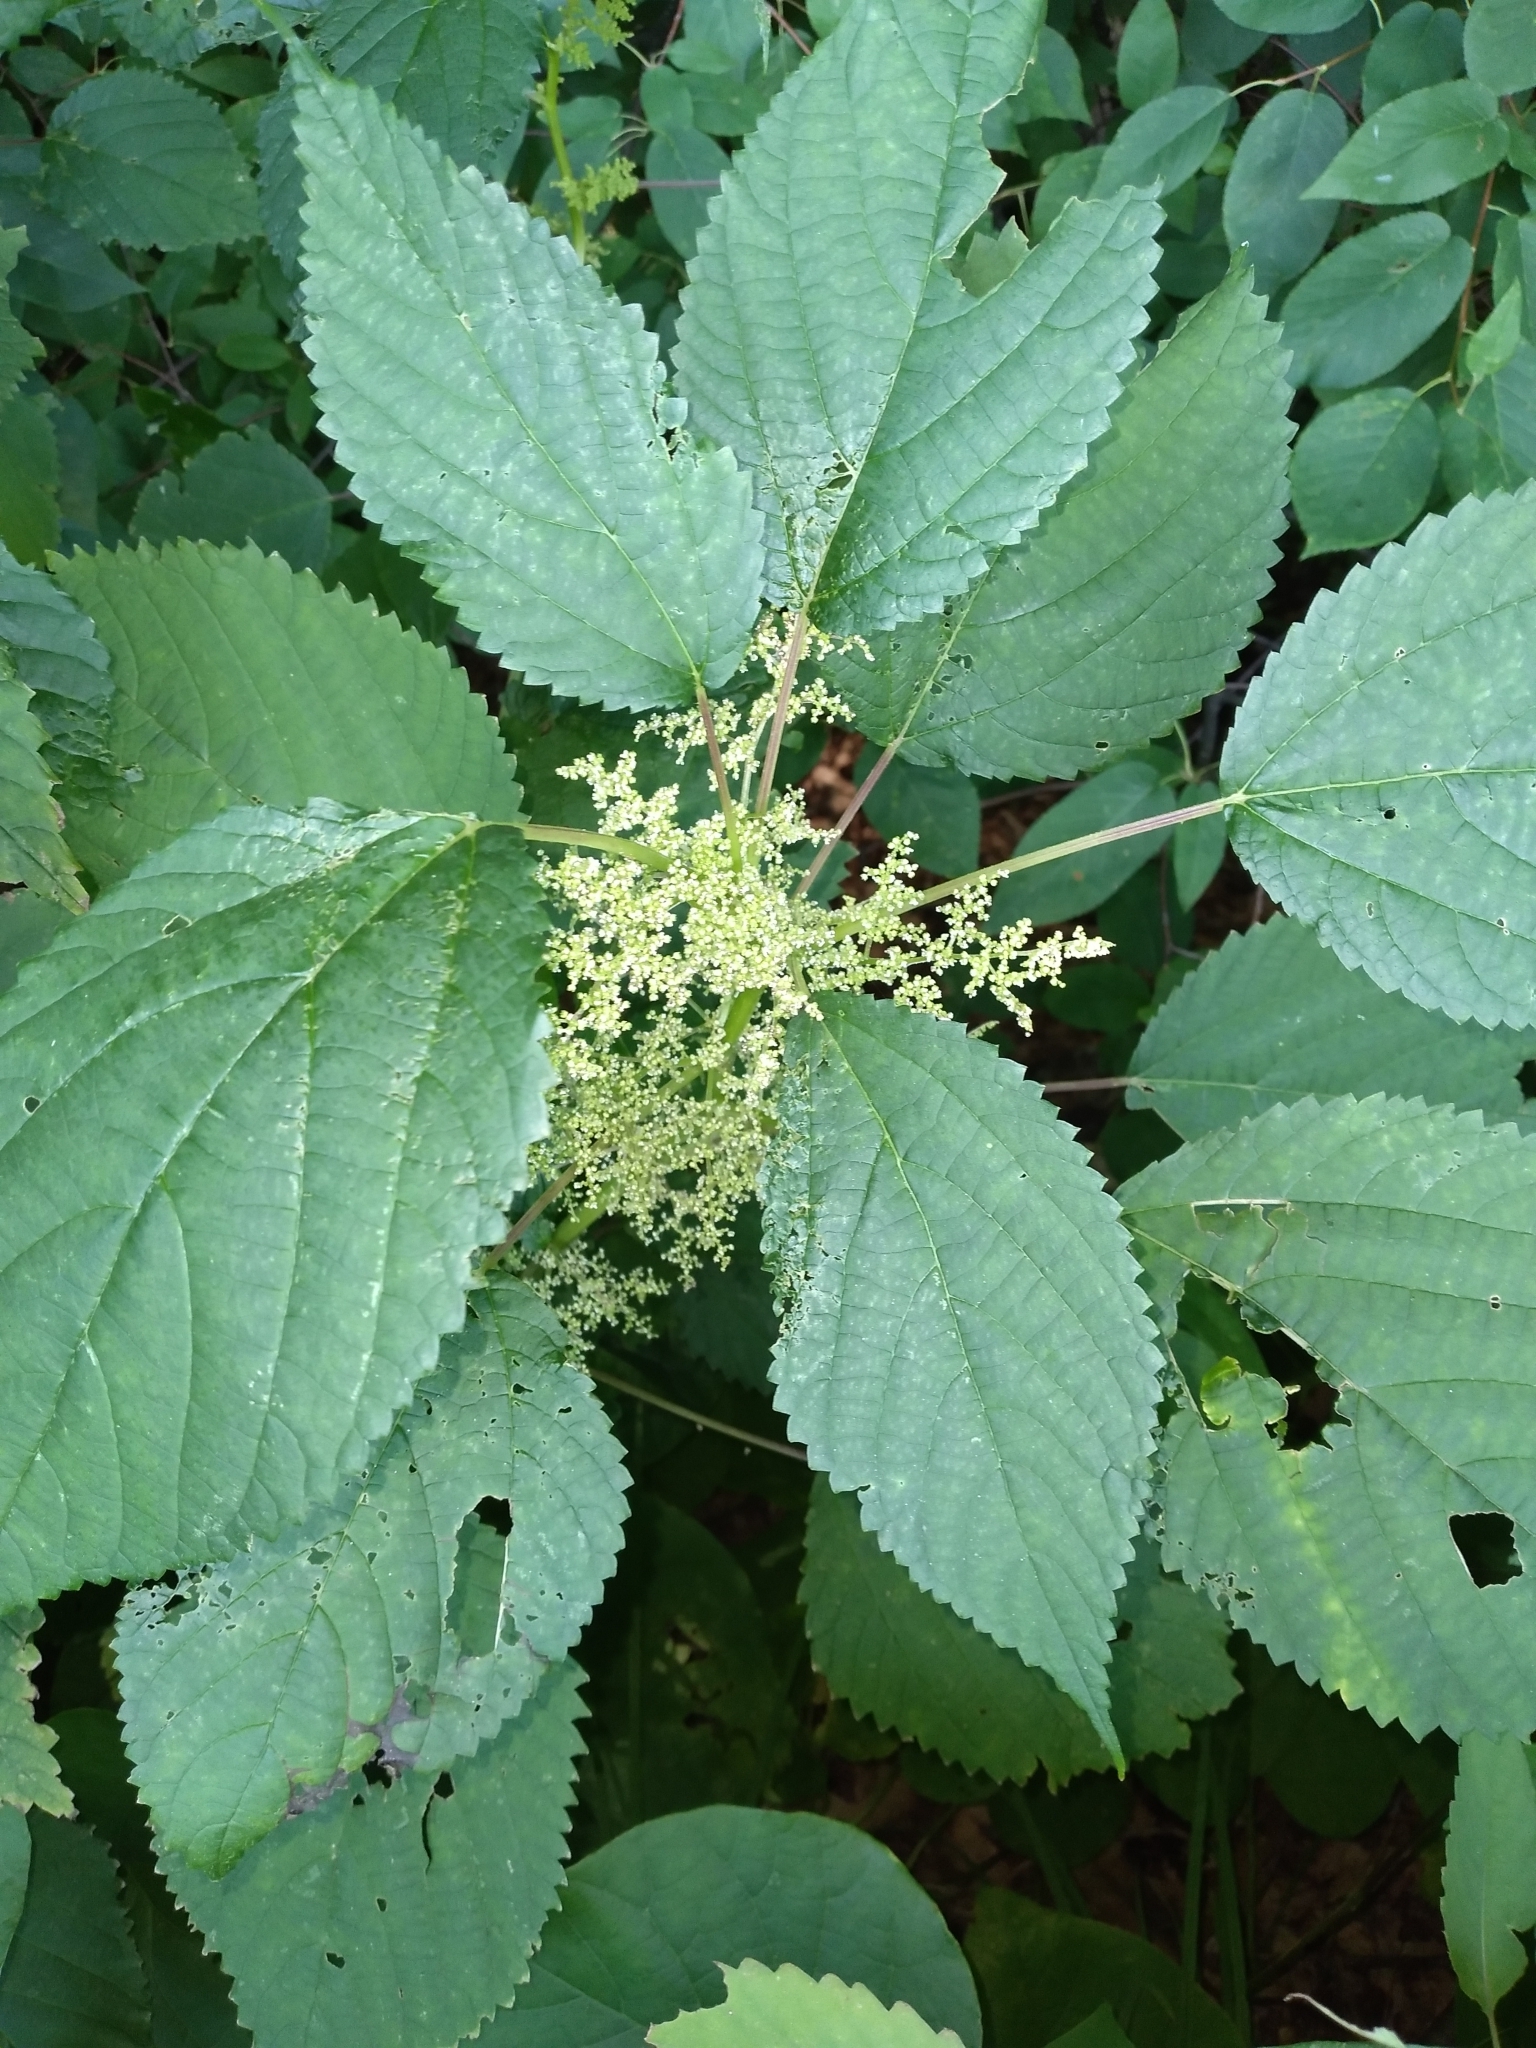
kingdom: Plantae
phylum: Tracheophyta
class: Magnoliopsida
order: Rosales
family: Urticaceae
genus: Laportea
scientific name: Laportea canadensis
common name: Canada nettle
